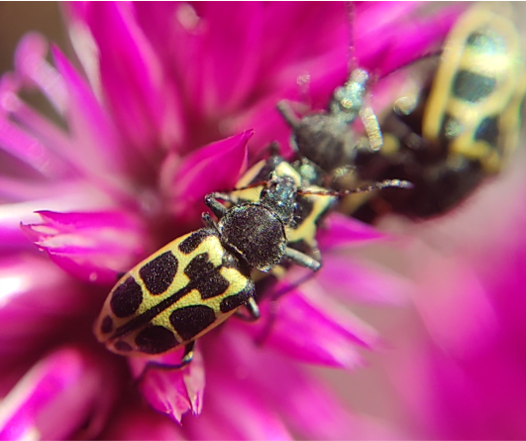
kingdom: Animalia
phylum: Arthropoda
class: Insecta
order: Coleoptera
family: Melyridae
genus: Astylus
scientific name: Astylus
